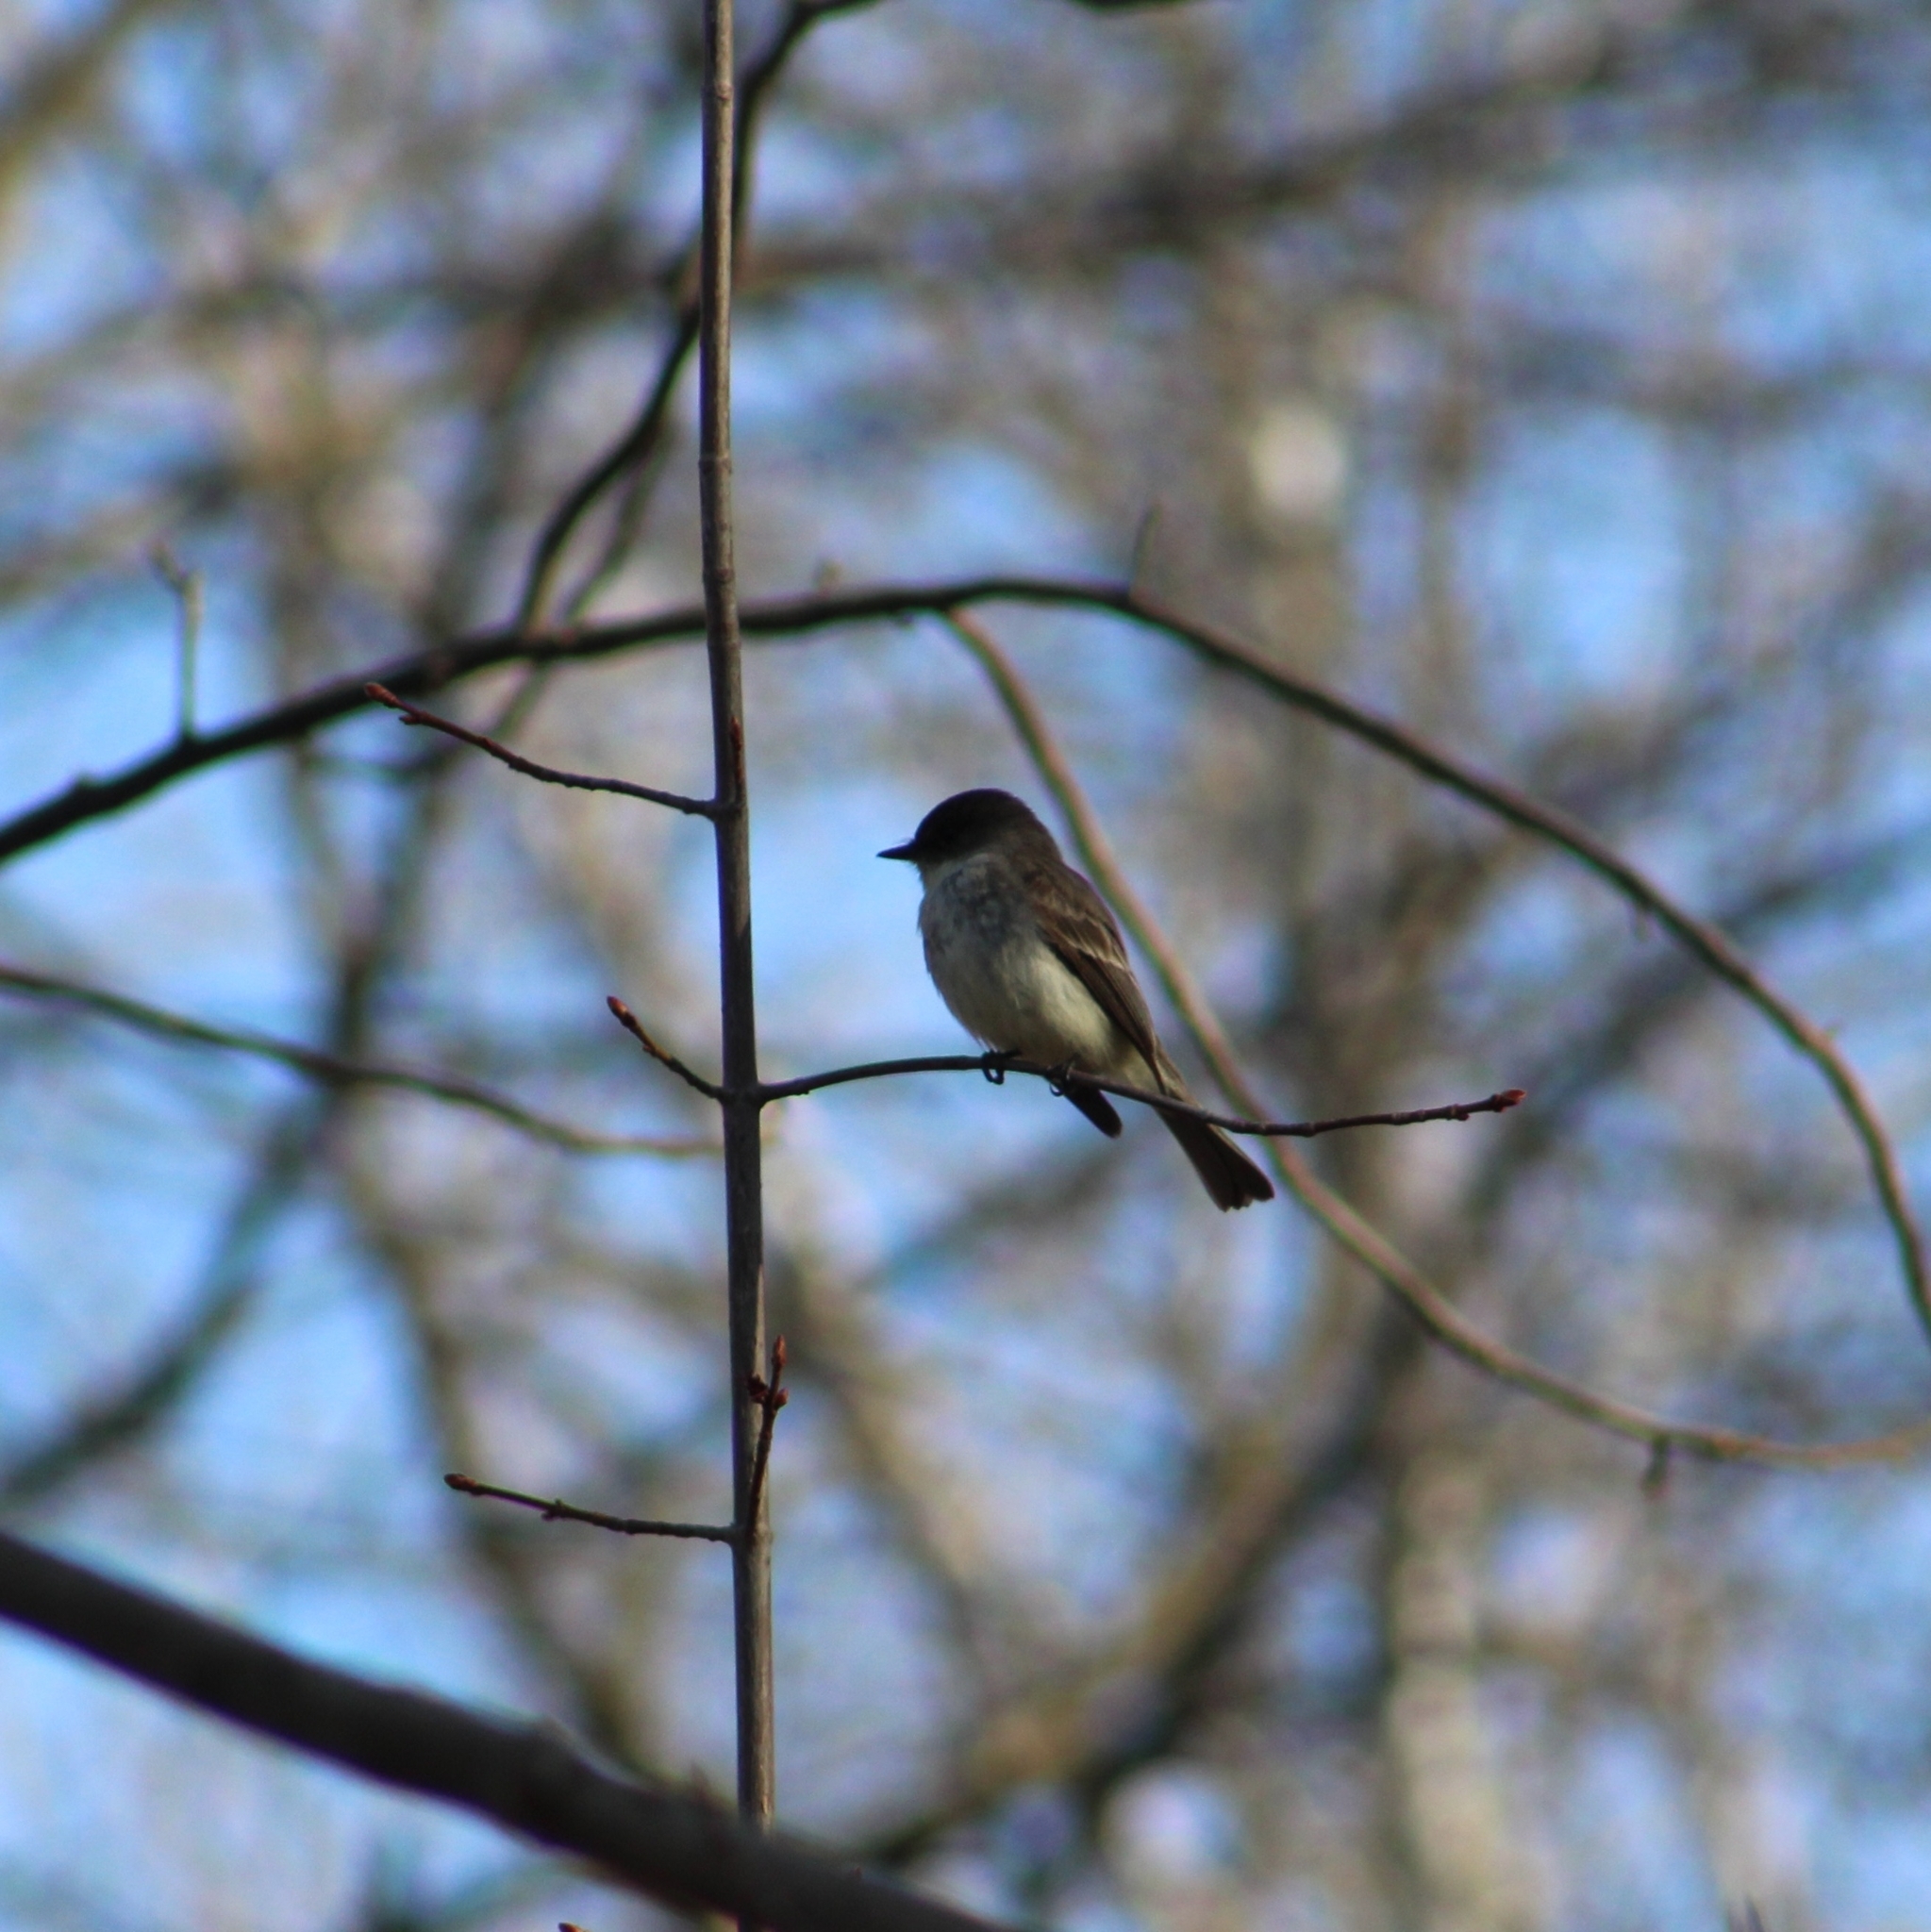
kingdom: Animalia
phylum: Chordata
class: Aves
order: Passeriformes
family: Tyrannidae
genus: Sayornis
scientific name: Sayornis phoebe
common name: Eastern phoebe
